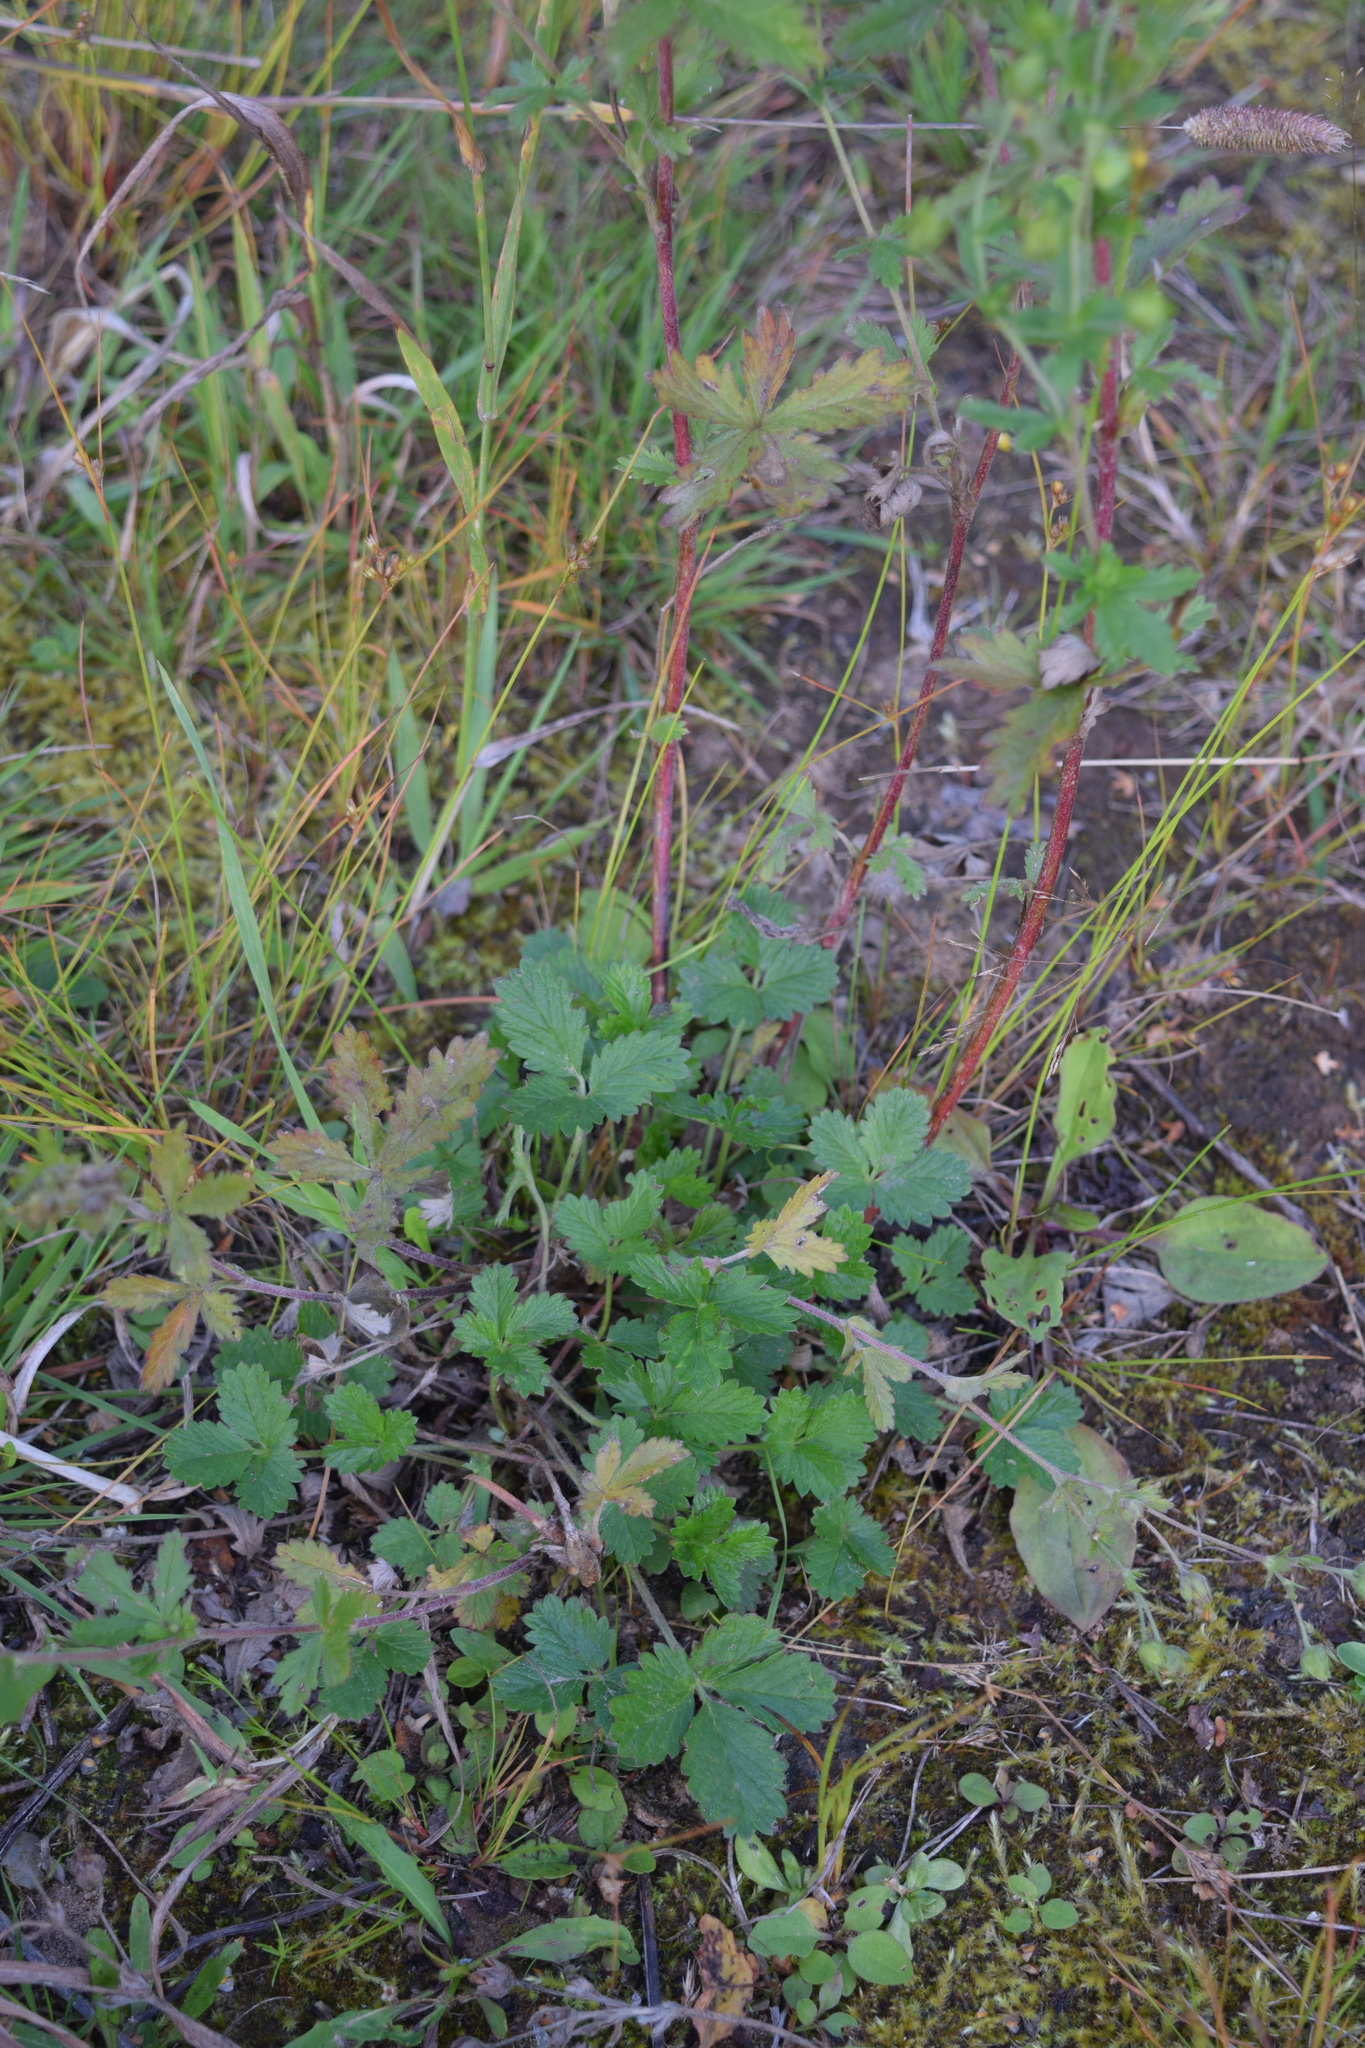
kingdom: Plantae
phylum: Tracheophyta
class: Magnoliopsida
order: Rosales
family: Rosaceae
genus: Potentilla
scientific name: Potentilla intermedia
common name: Downy cinquefoil
